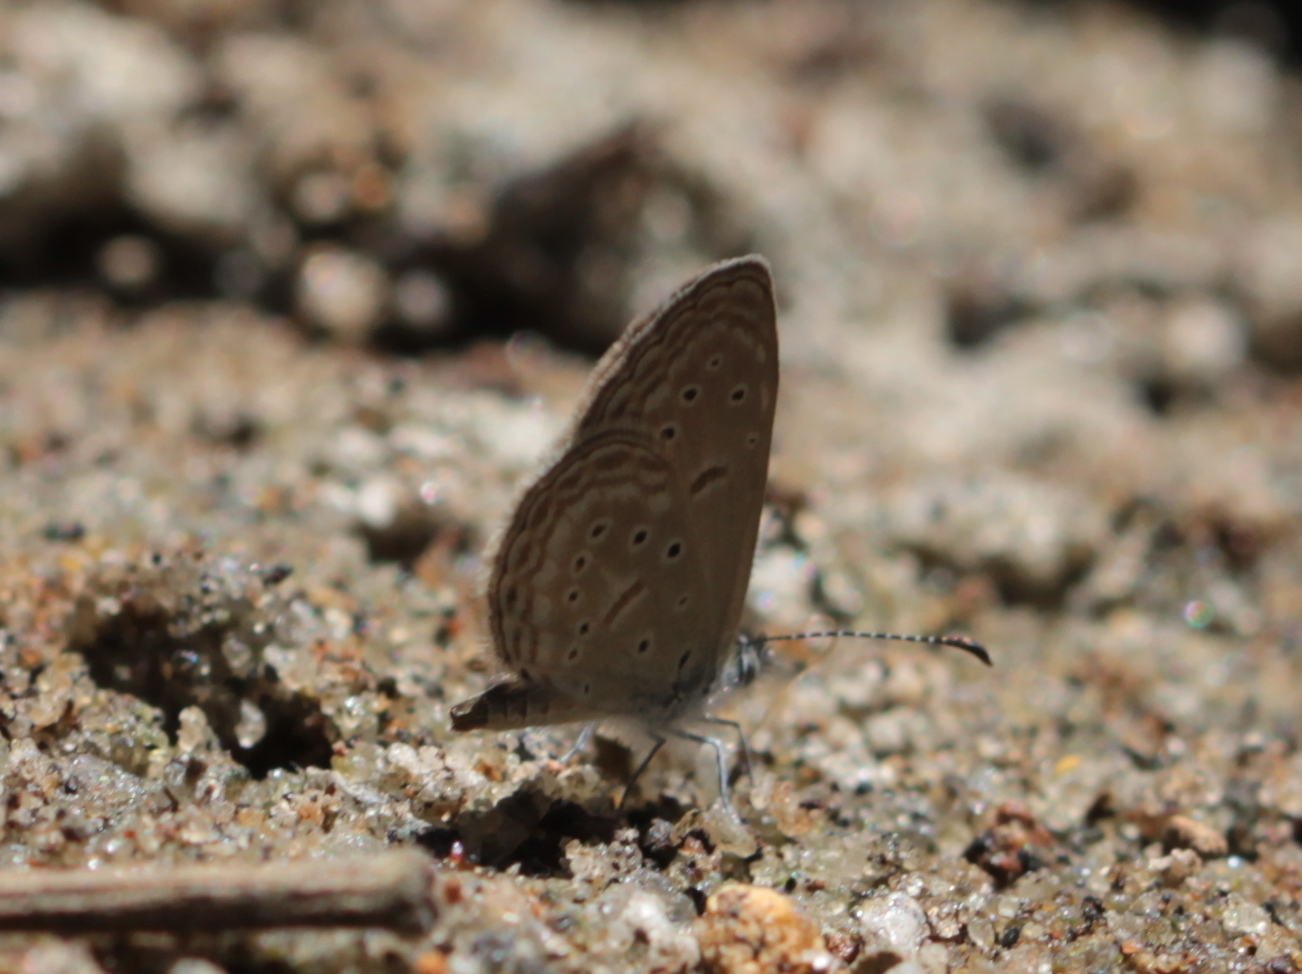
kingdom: Animalia
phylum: Arthropoda
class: Insecta
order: Lepidoptera
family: Lycaenidae
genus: Zizula
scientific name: Zizula hylax
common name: Gaika blue
